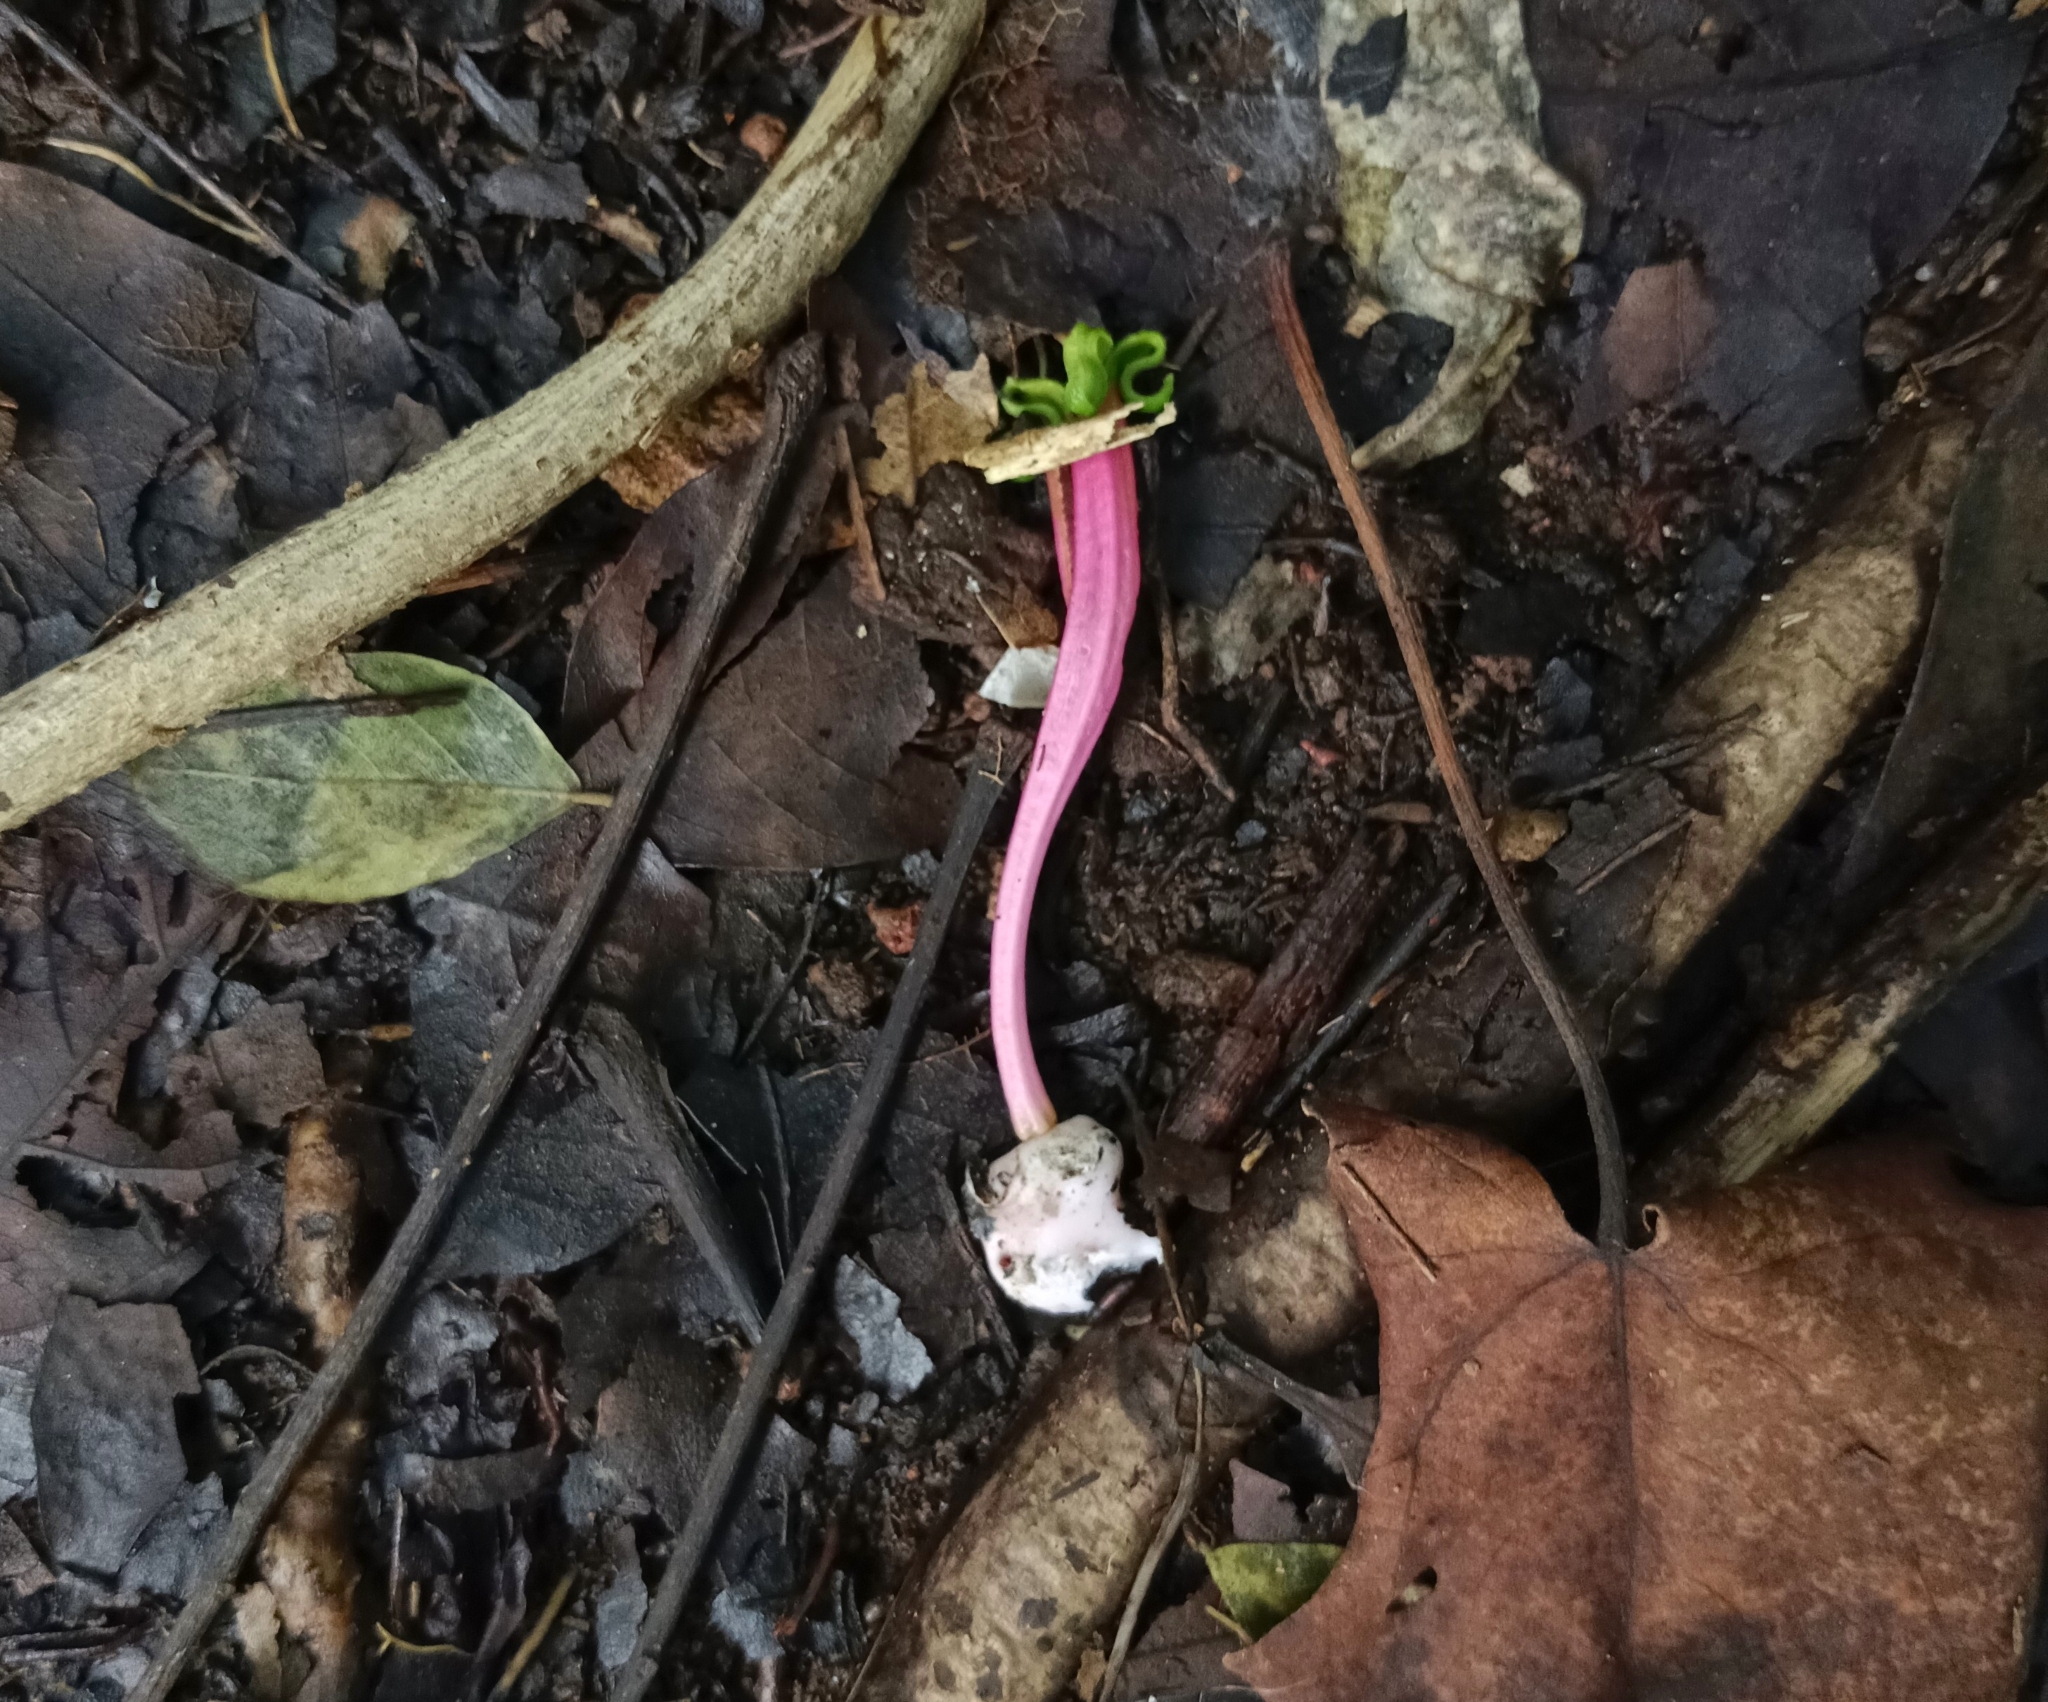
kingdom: Plantae
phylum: Tracheophyta
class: Magnoliopsida
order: Santalales
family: Loranthaceae
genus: Dendrophthoe
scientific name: Dendrophthoe falcata
